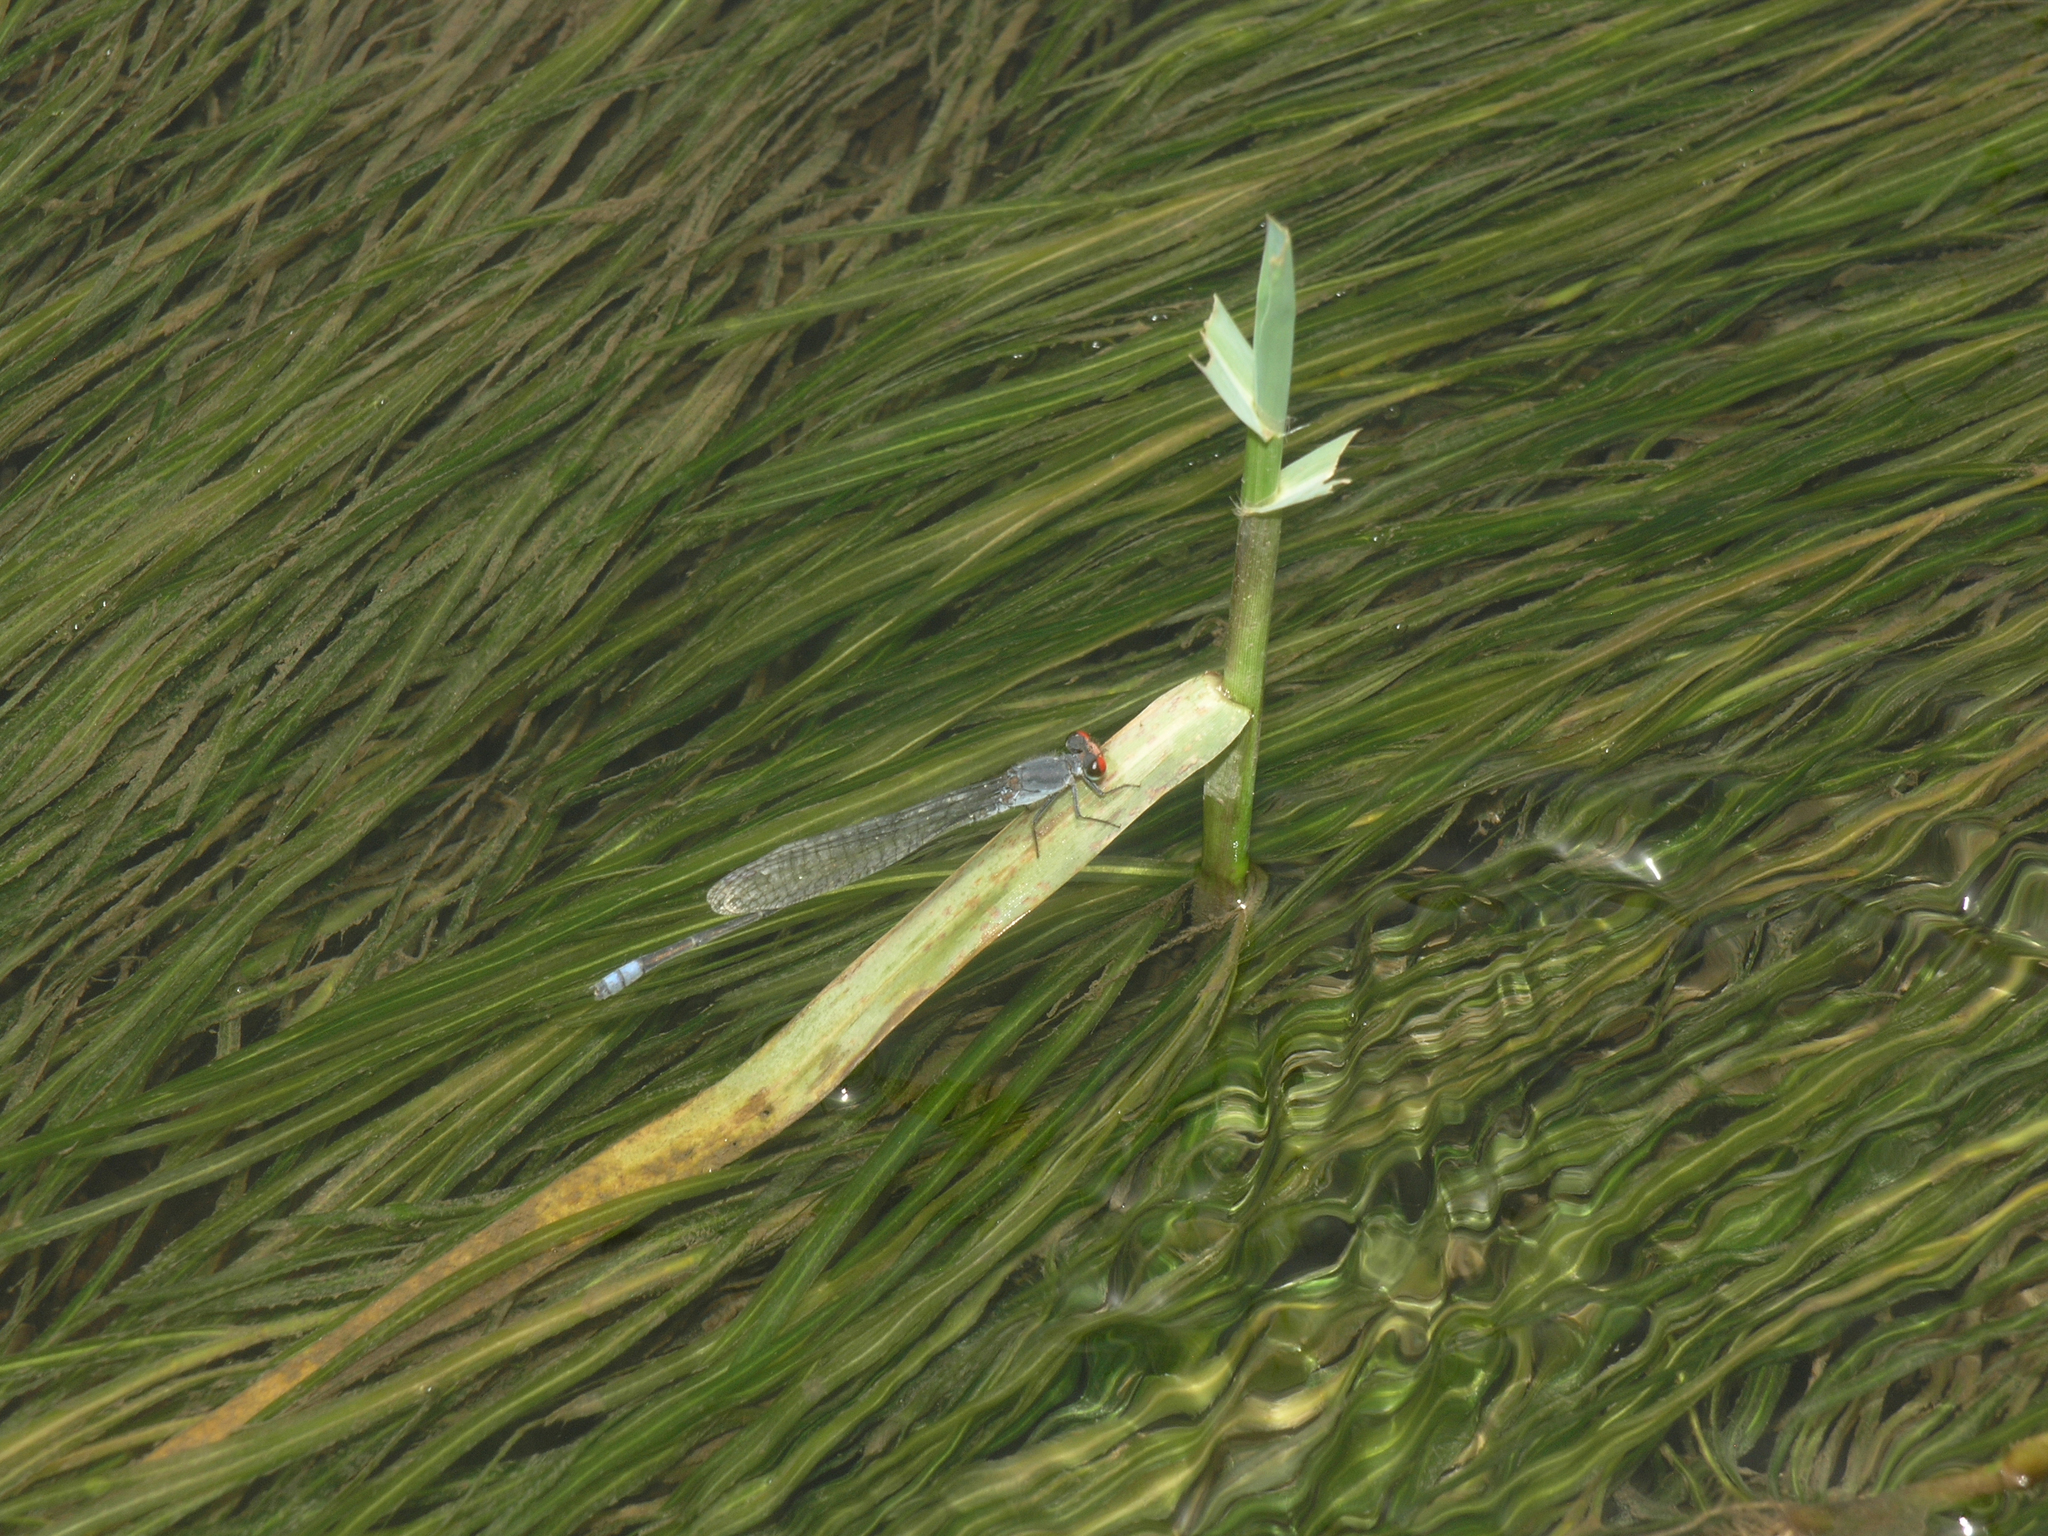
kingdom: Animalia
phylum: Arthropoda
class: Insecta
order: Odonata
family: Coenagrionidae
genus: Pseudagrion
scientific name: Pseudagrion sublacteum
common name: Cherry-eye sprite
